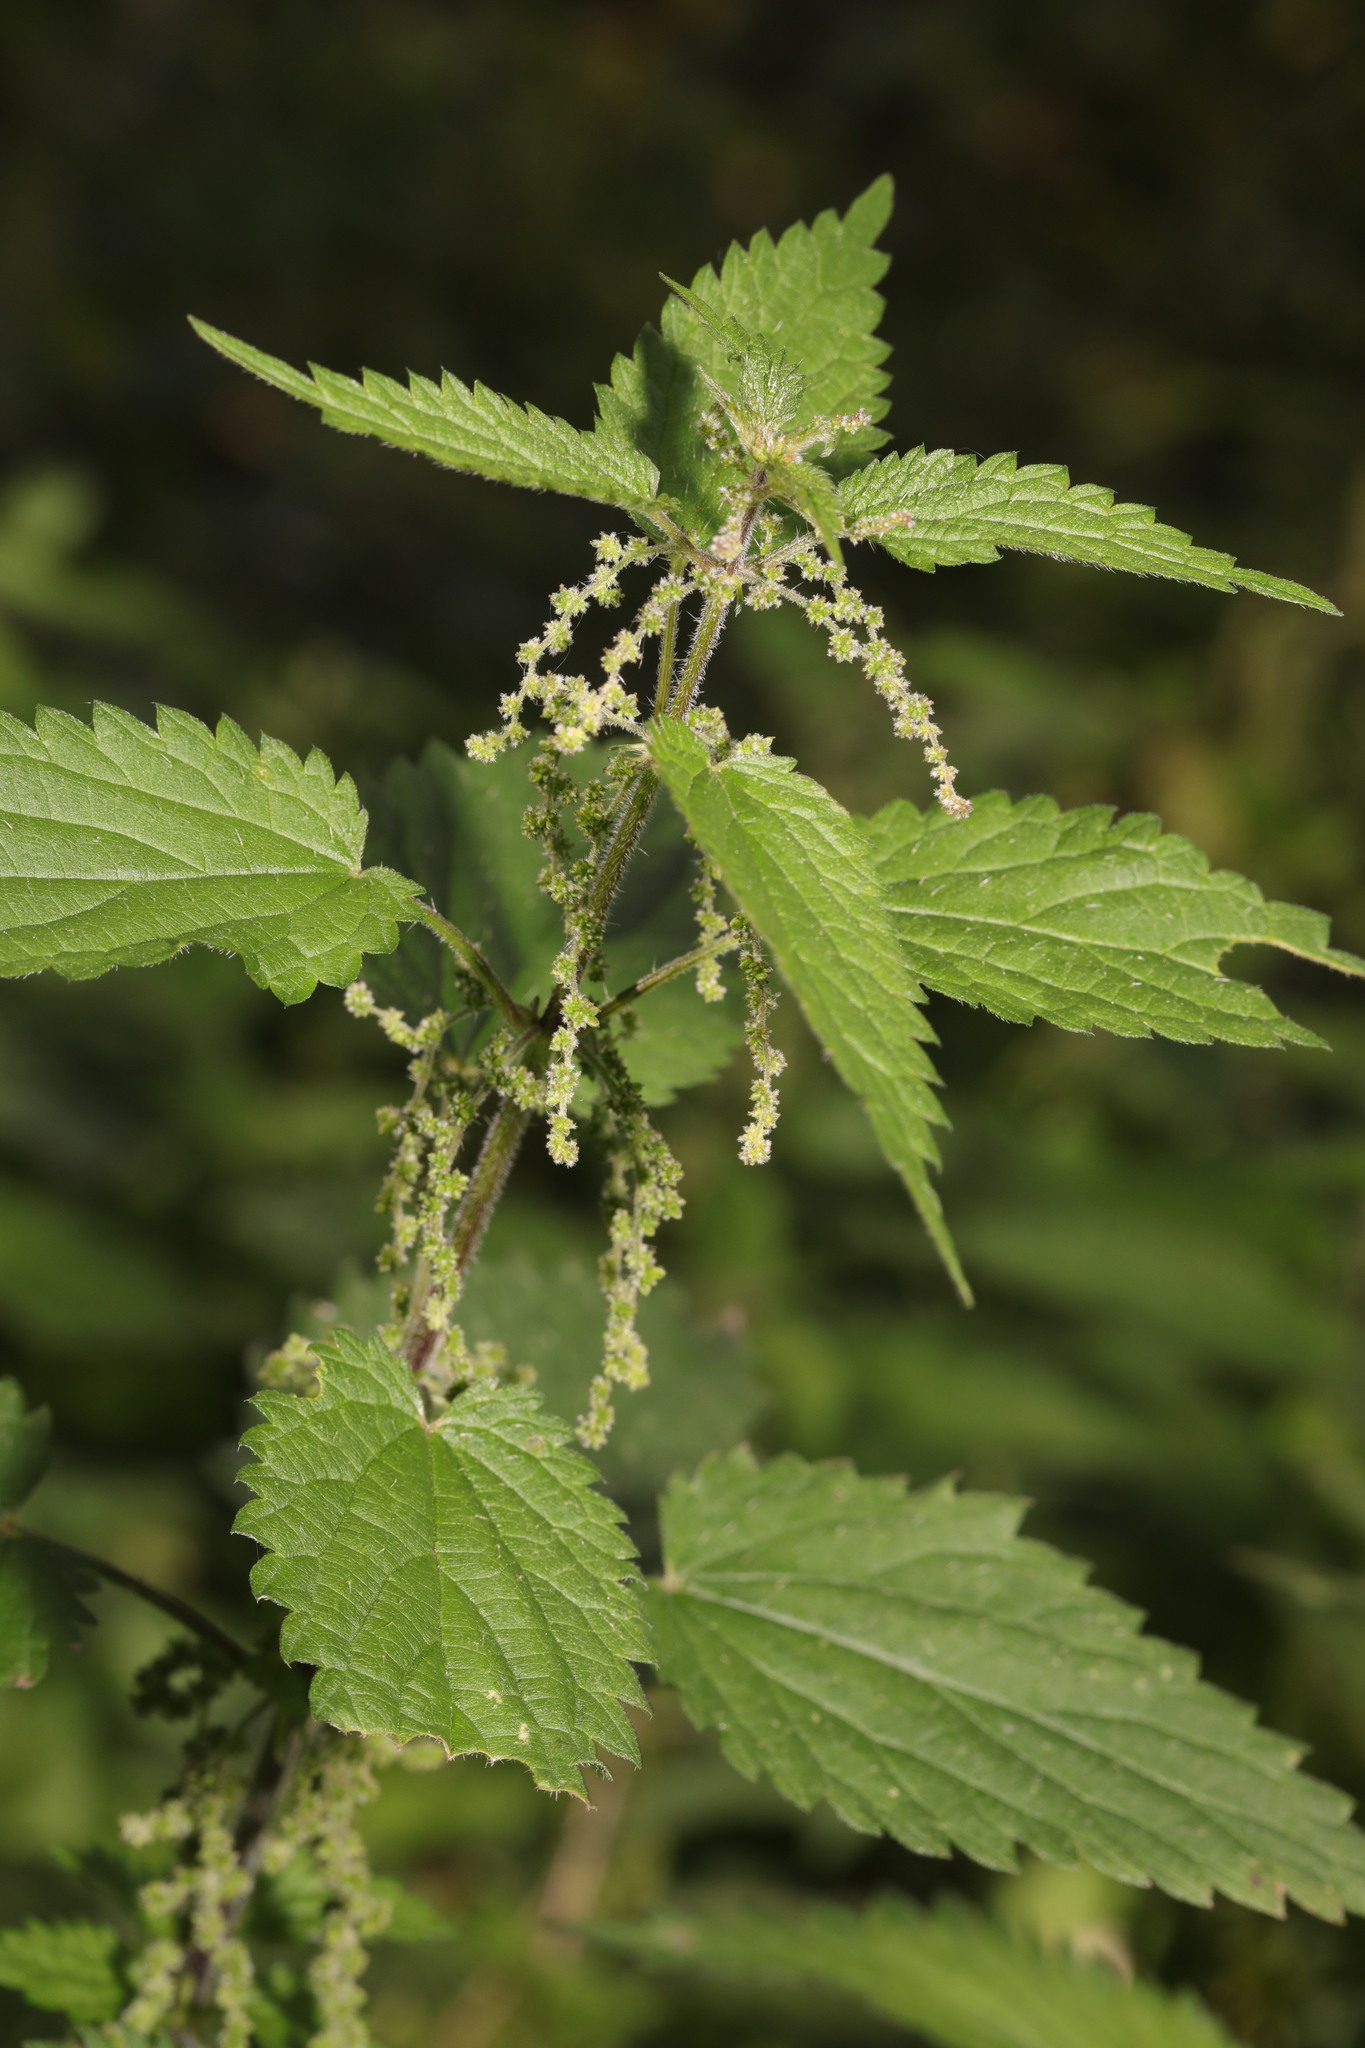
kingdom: Plantae
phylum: Tracheophyta
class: Magnoliopsida
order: Rosales
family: Urticaceae
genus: Urtica
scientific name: Urtica dioica
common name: Common nettle
